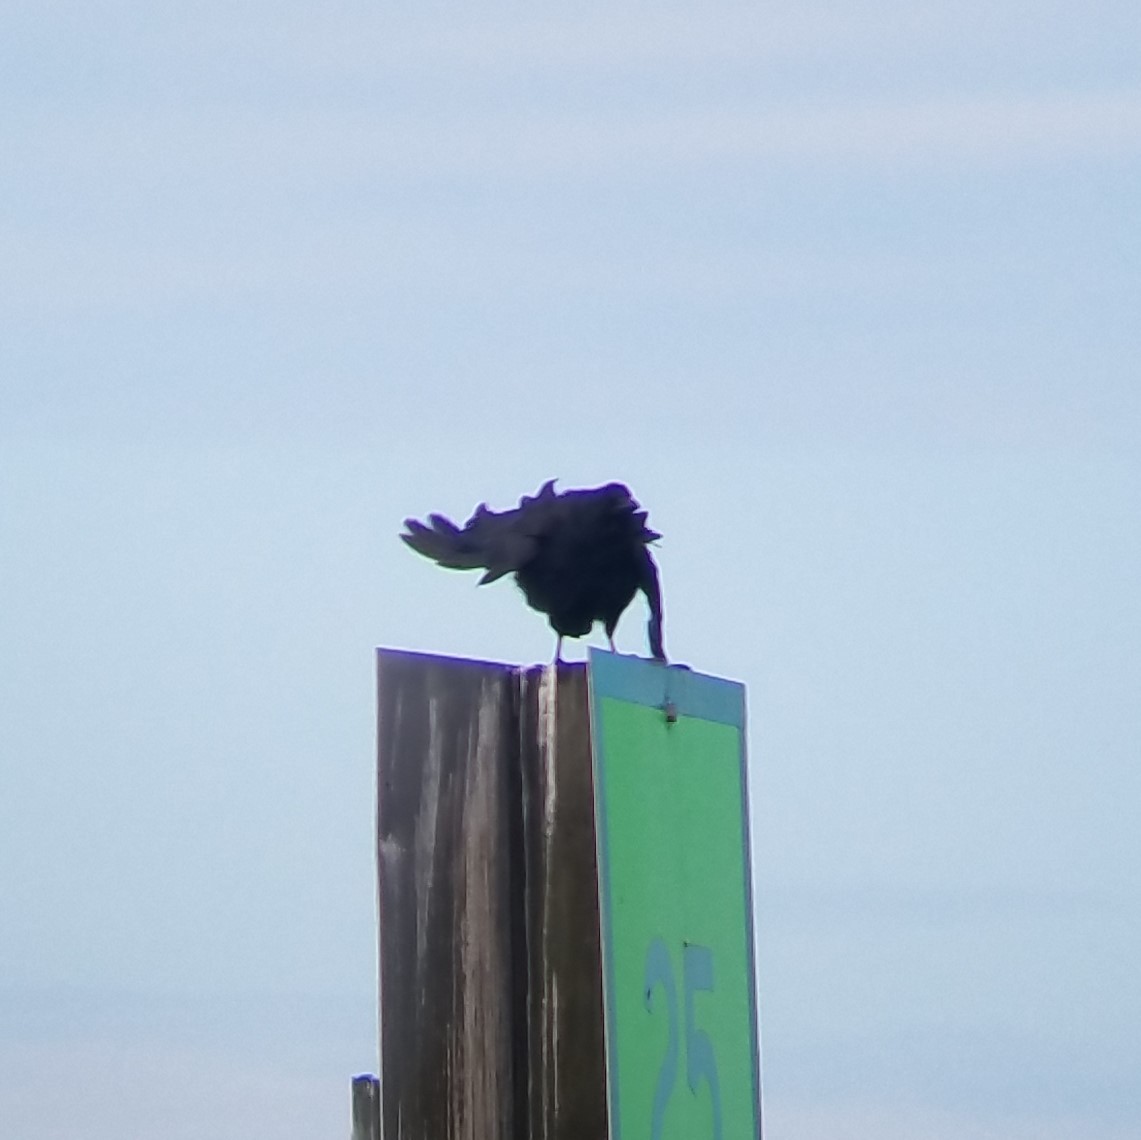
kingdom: Animalia
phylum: Chordata
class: Aves
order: Passeriformes
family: Corvidae
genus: Corvus
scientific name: Corvus
